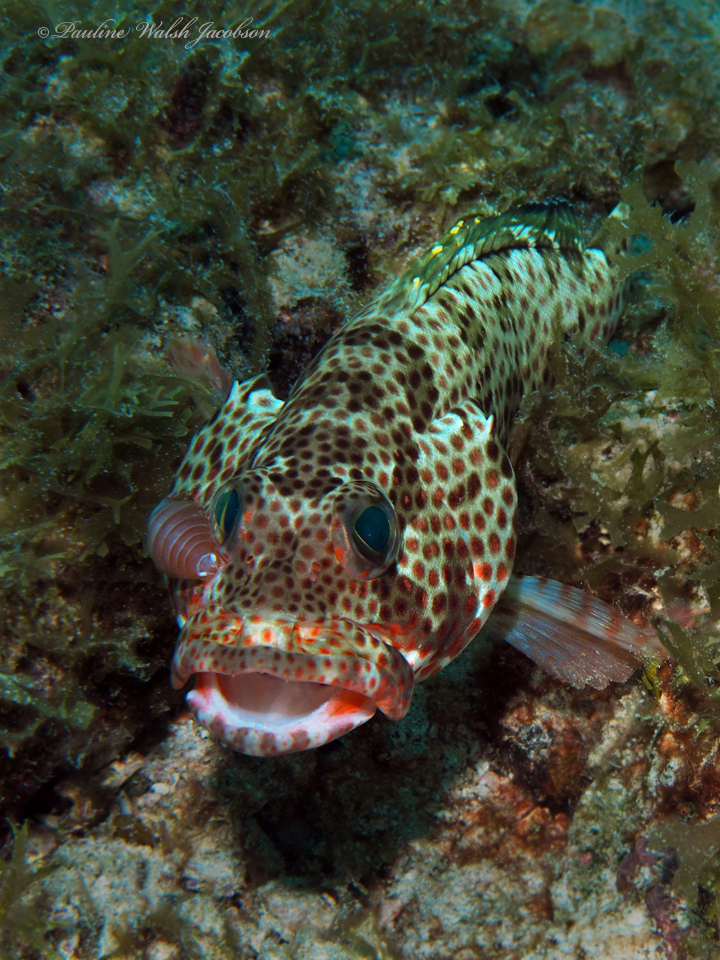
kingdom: Animalia
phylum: Chordata
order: Perciformes
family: Serranidae
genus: Epinephelus
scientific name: Epinephelus guttatus
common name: Red hind
